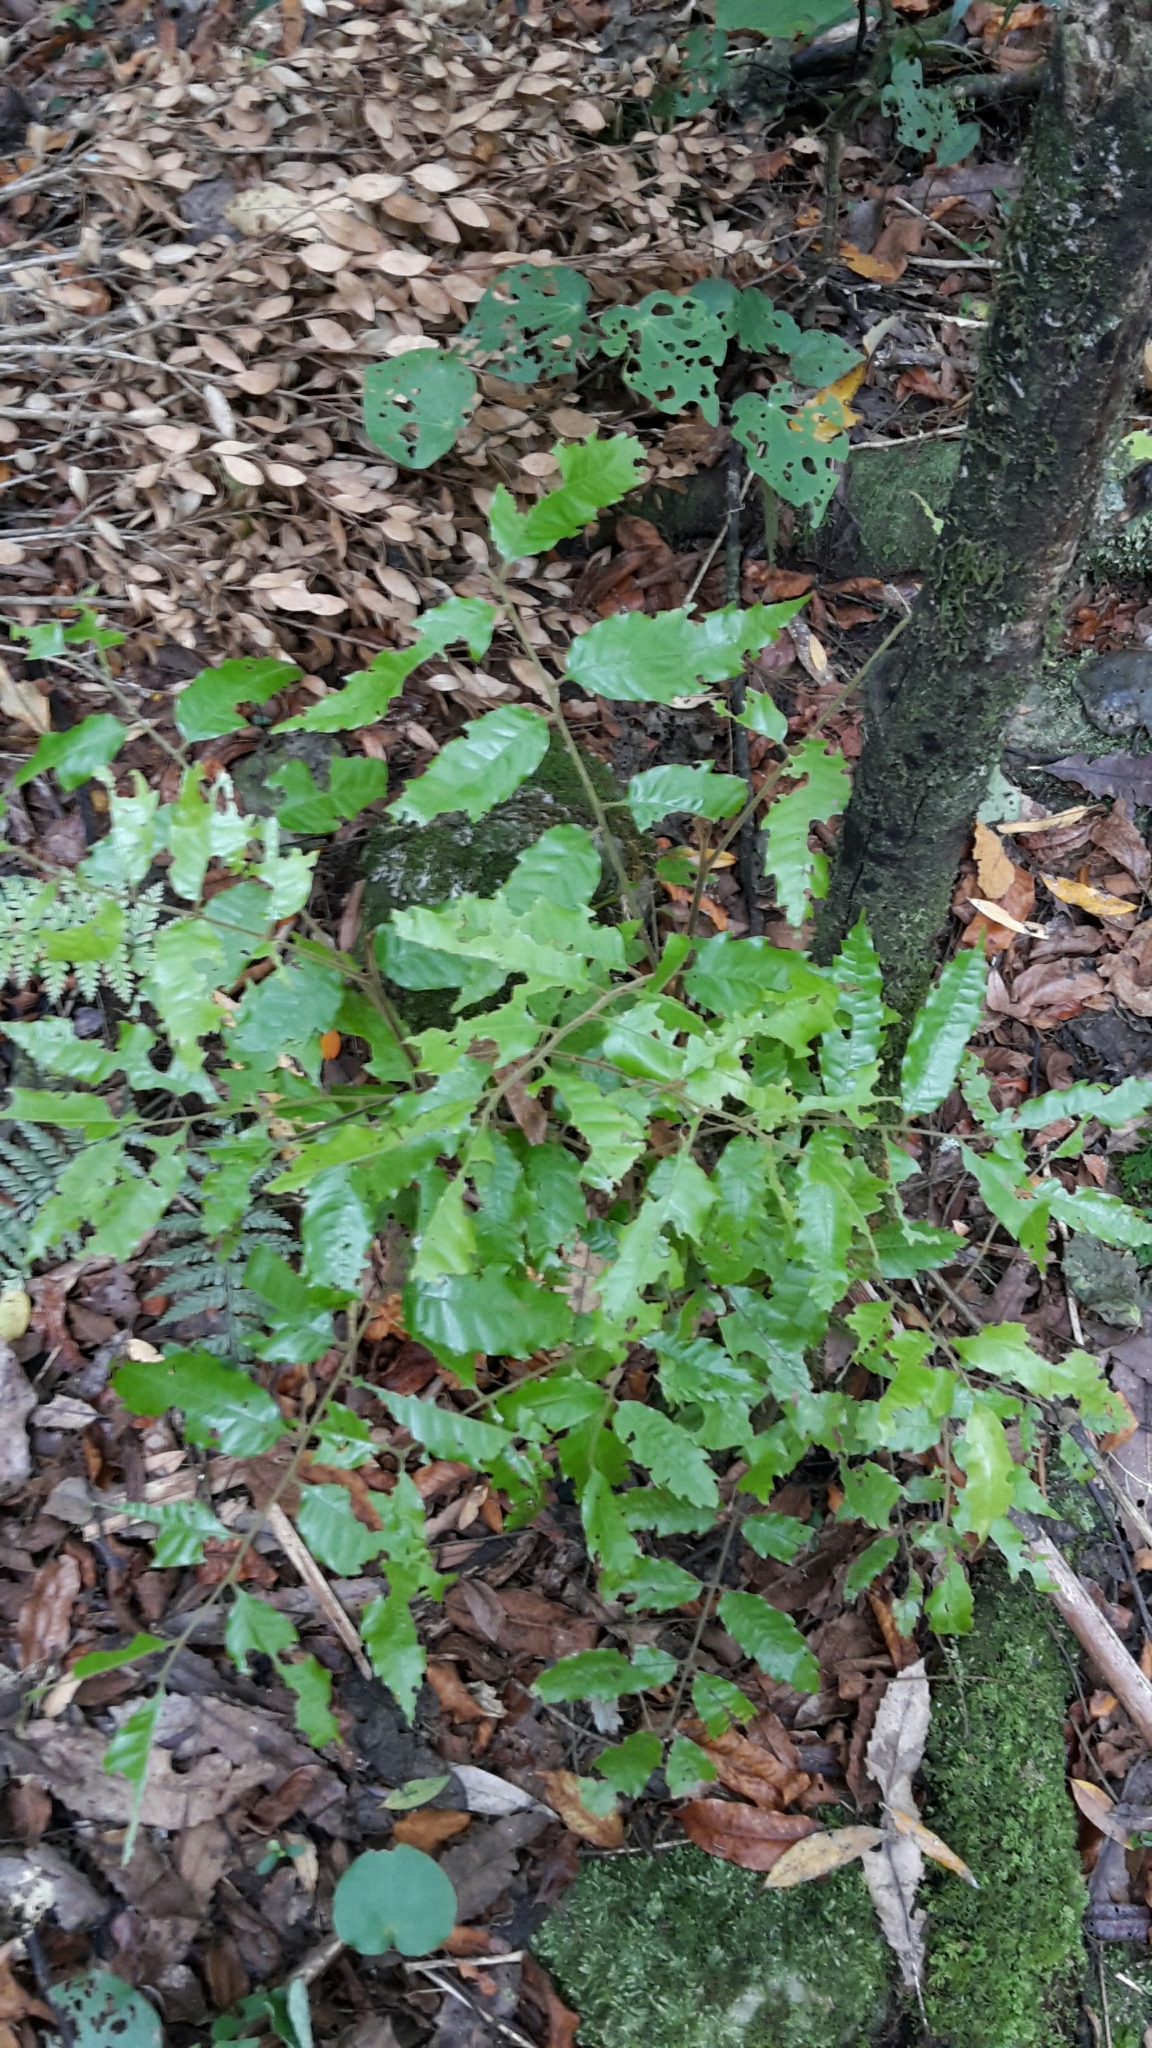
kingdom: Plantae
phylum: Tracheophyta
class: Magnoliopsida
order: Sapindales
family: Sapindaceae
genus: Alectryon
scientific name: Alectryon excelsus
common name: Three kings titoki
